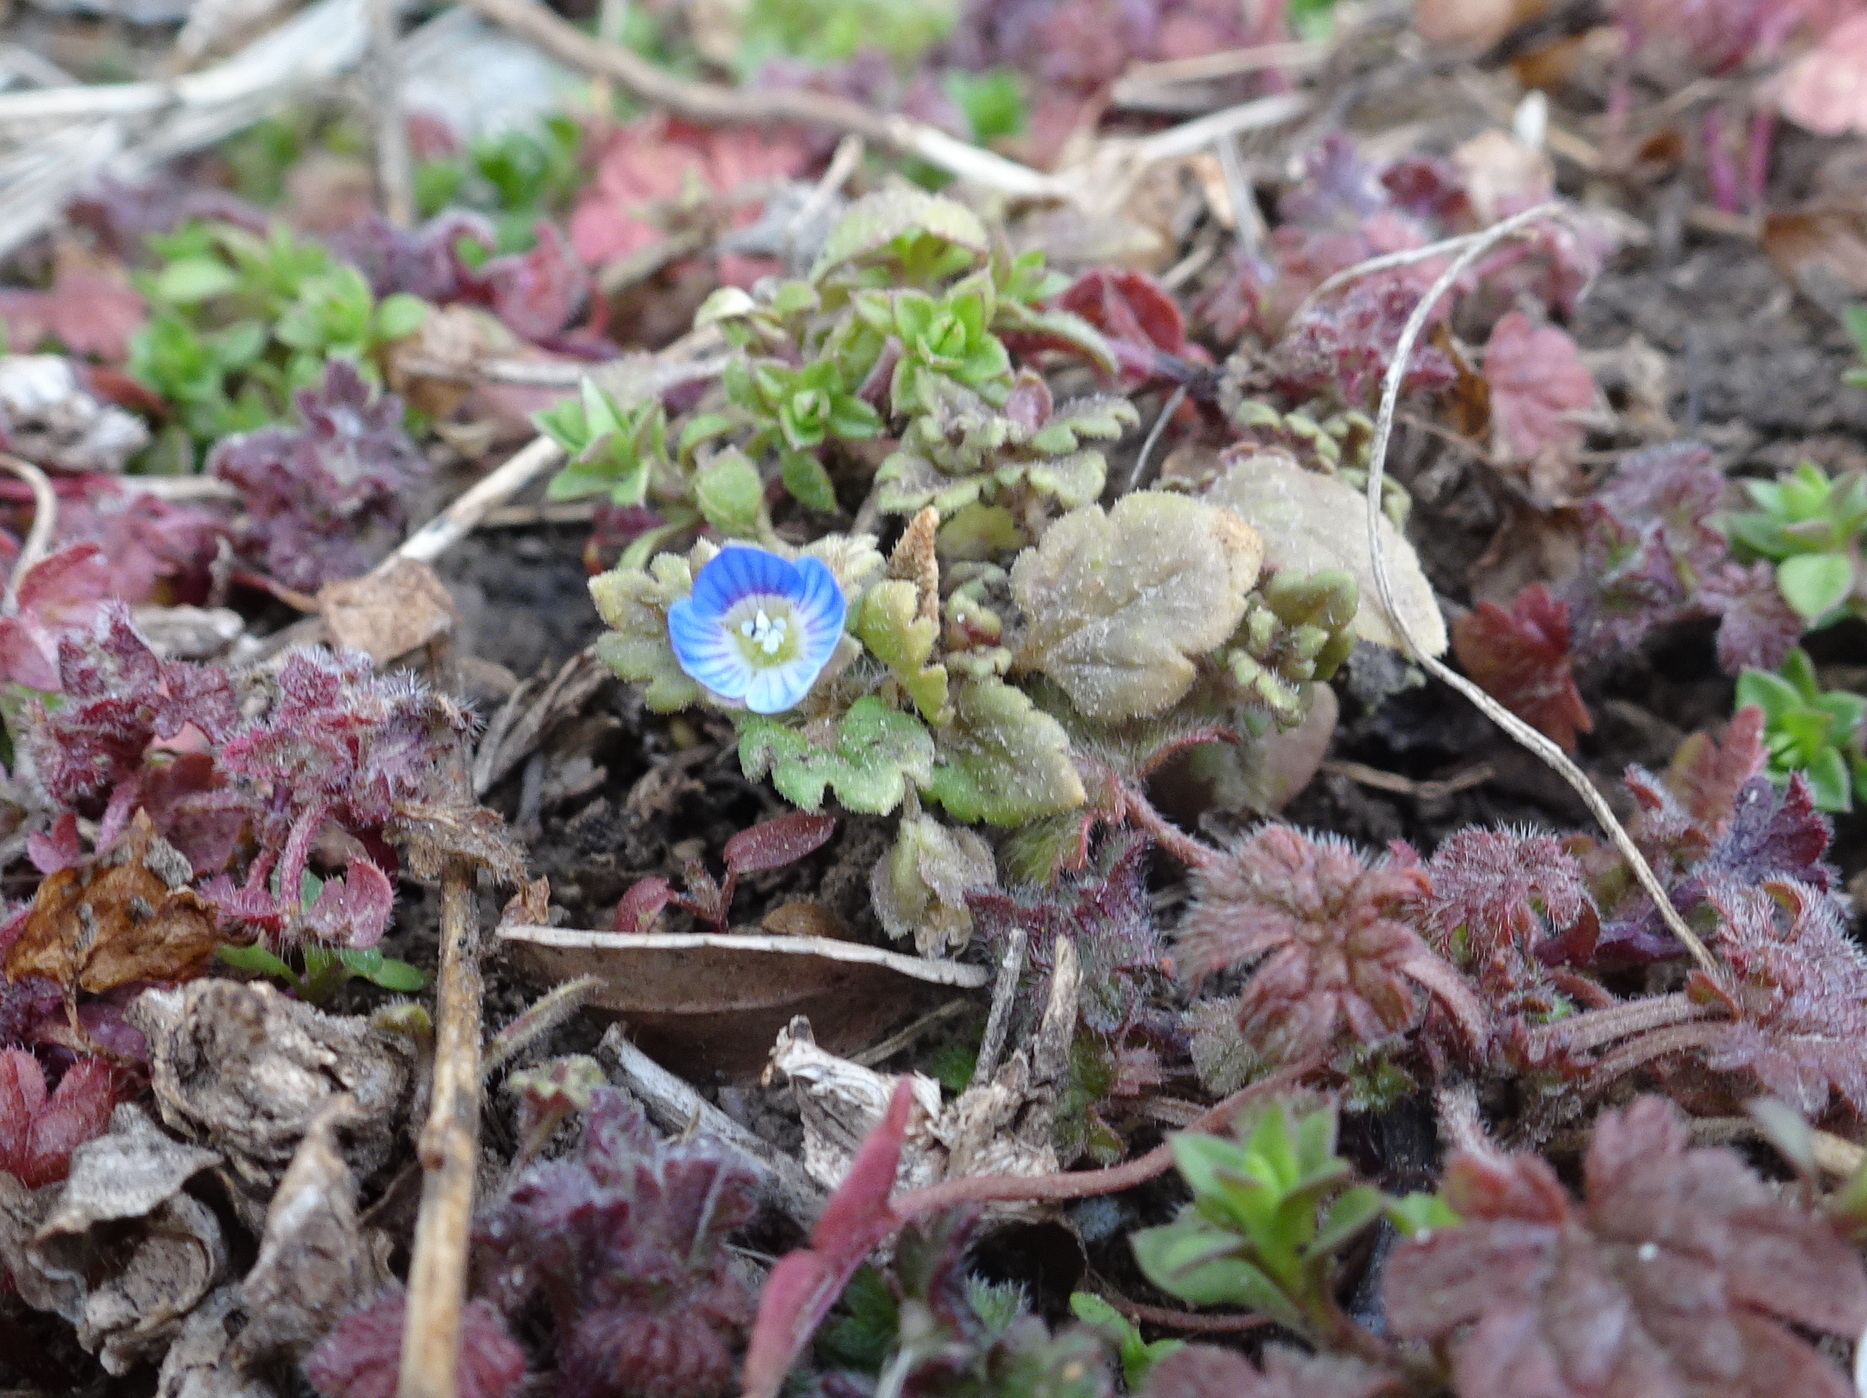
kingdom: Plantae
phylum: Tracheophyta
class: Magnoliopsida
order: Lamiales
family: Plantaginaceae
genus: Veronica
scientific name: Veronica polita
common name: Grey field-speedwell
